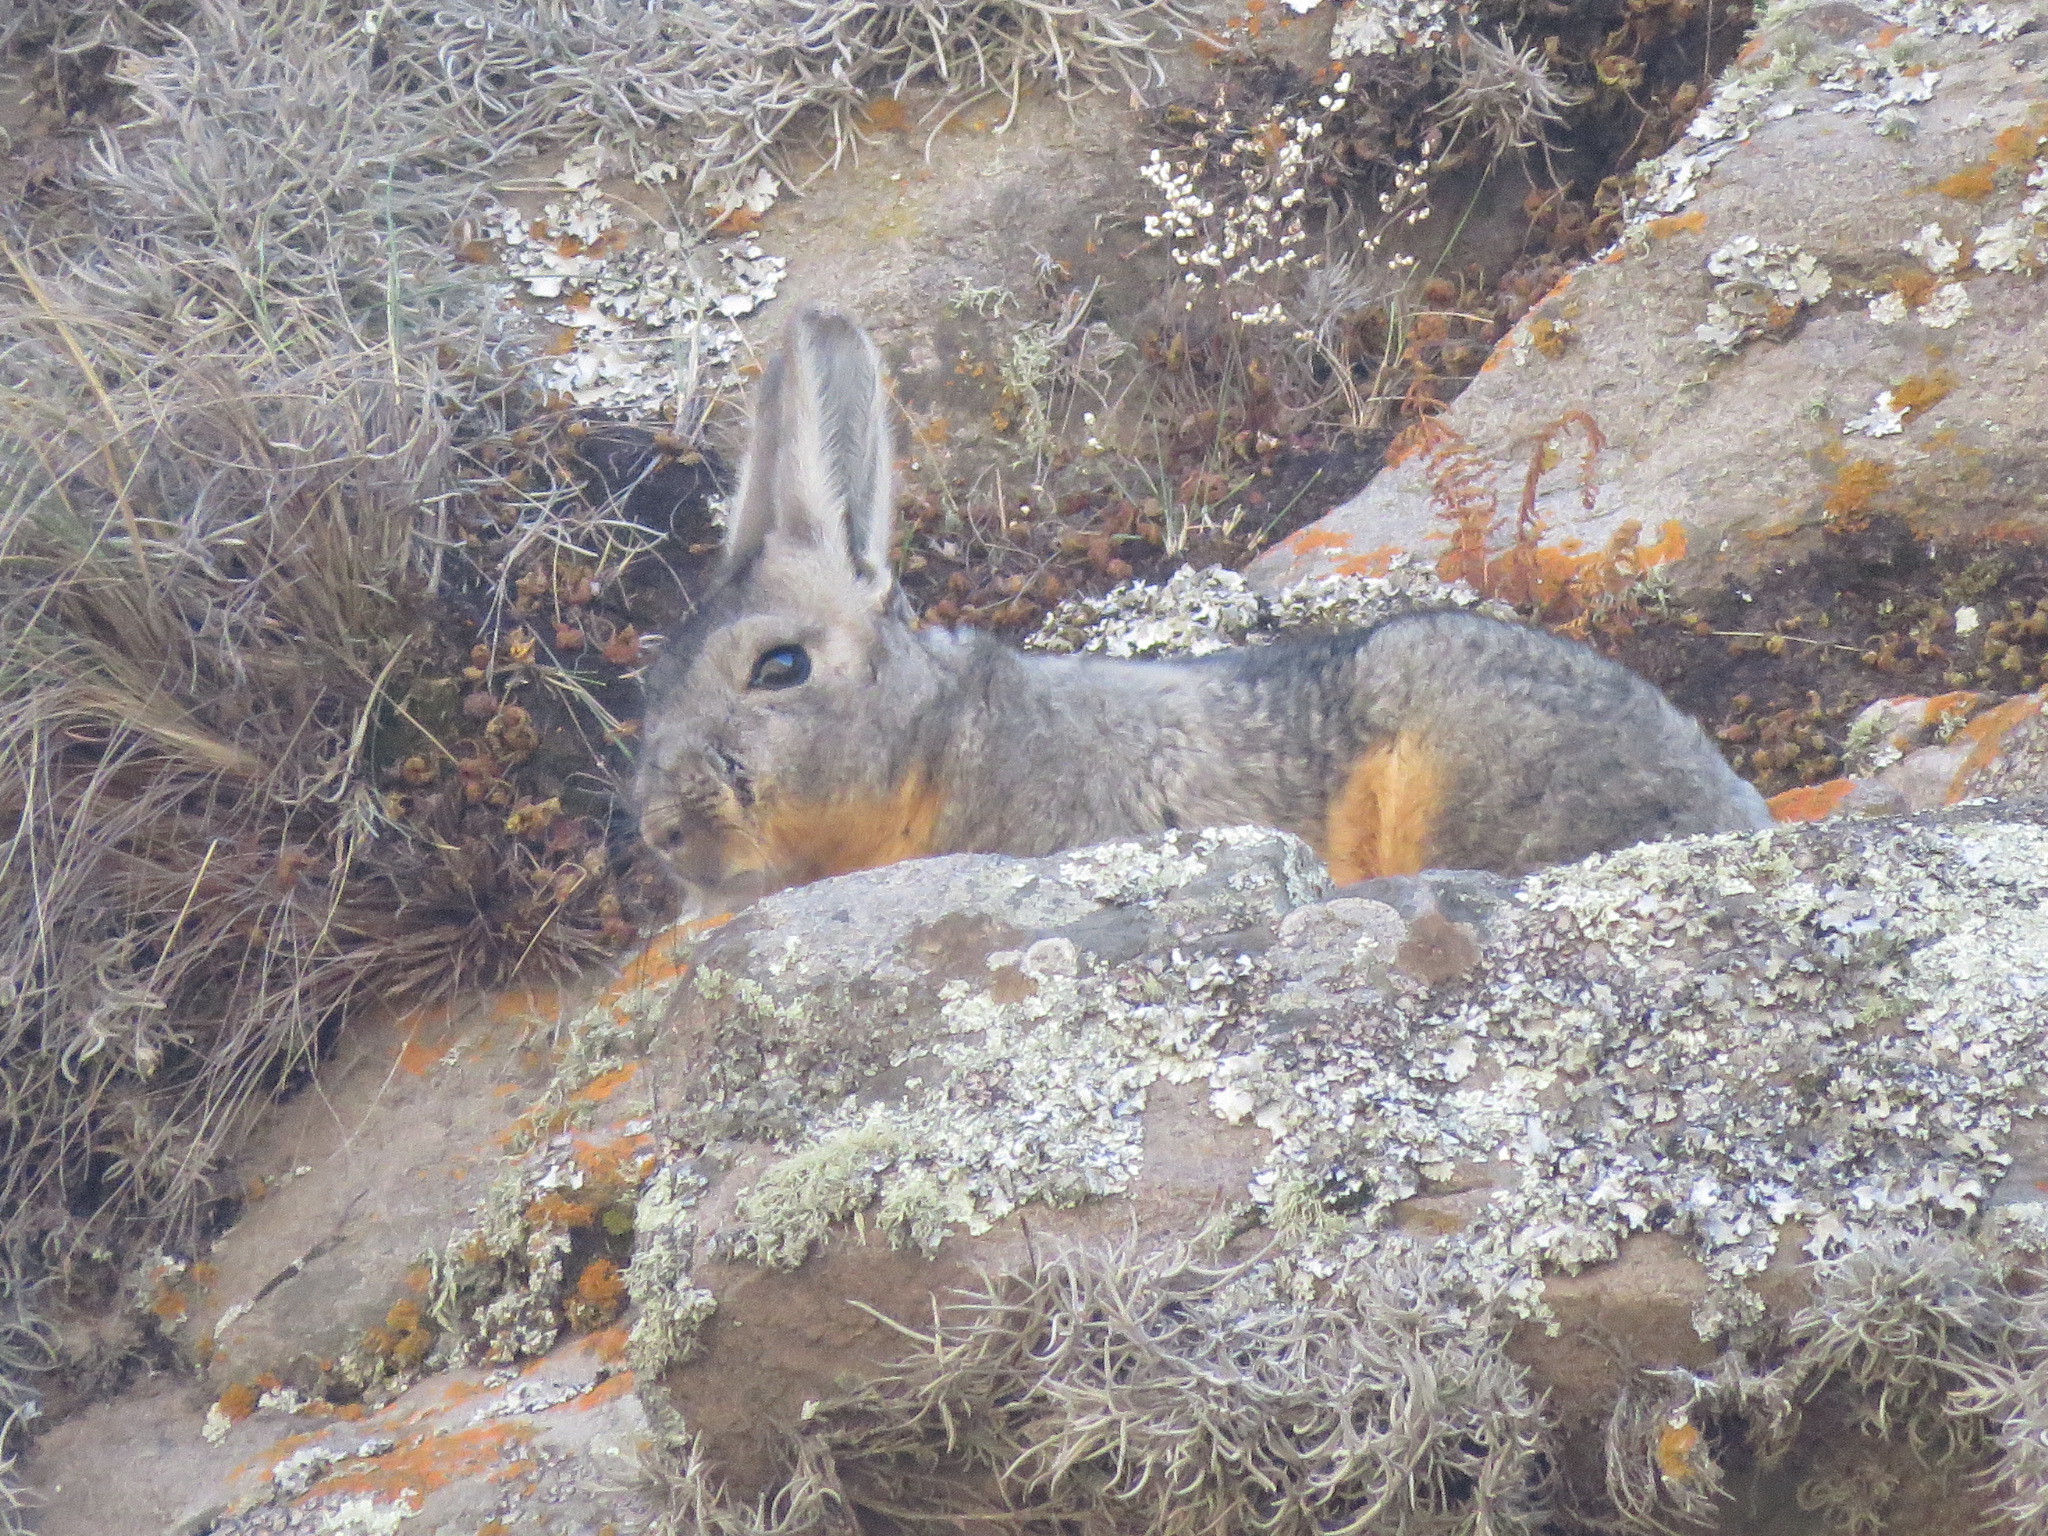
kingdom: Animalia
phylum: Chordata
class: Mammalia
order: Rodentia
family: Chinchillidae
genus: Lagidium
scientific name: Lagidium viscacia
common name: Southern viscacha
